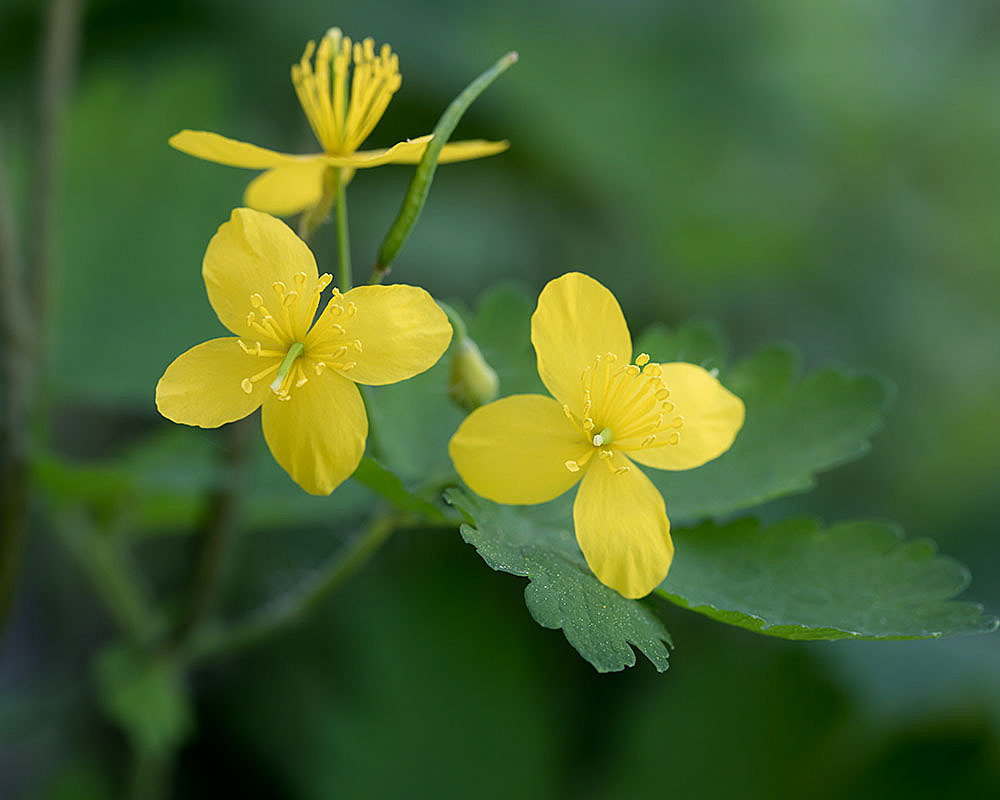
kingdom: Plantae
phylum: Tracheophyta
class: Magnoliopsida
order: Ranunculales
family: Papaveraceae
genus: Chelidonium
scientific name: Chelidonium majus
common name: Greater celandine
